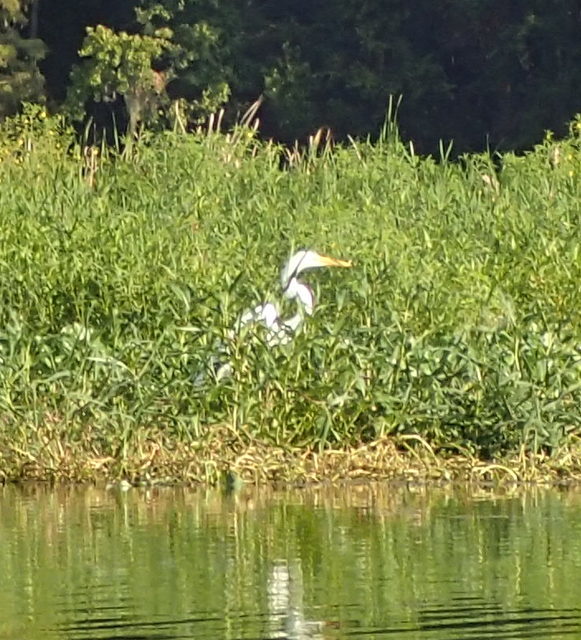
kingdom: Animalia
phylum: Chordata
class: Aves
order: Pelecaniformes
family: Ardeidae
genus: Ardea
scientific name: Ardea alba
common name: Great egret
